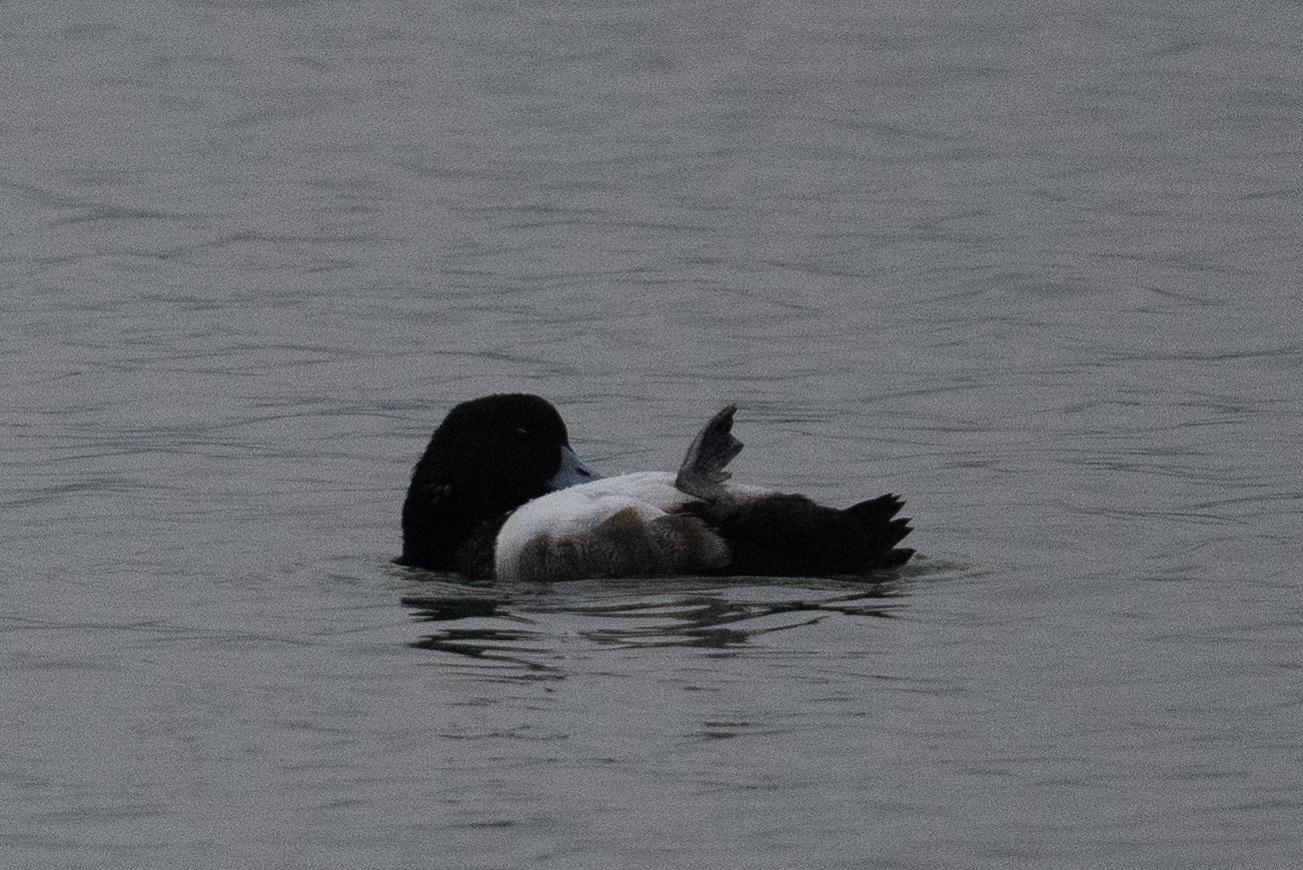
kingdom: Animalia
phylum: Chordata
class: Aves
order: Anseriformes
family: Anatidae
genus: Aythya
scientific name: Aythya marila
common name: Greater scaup
